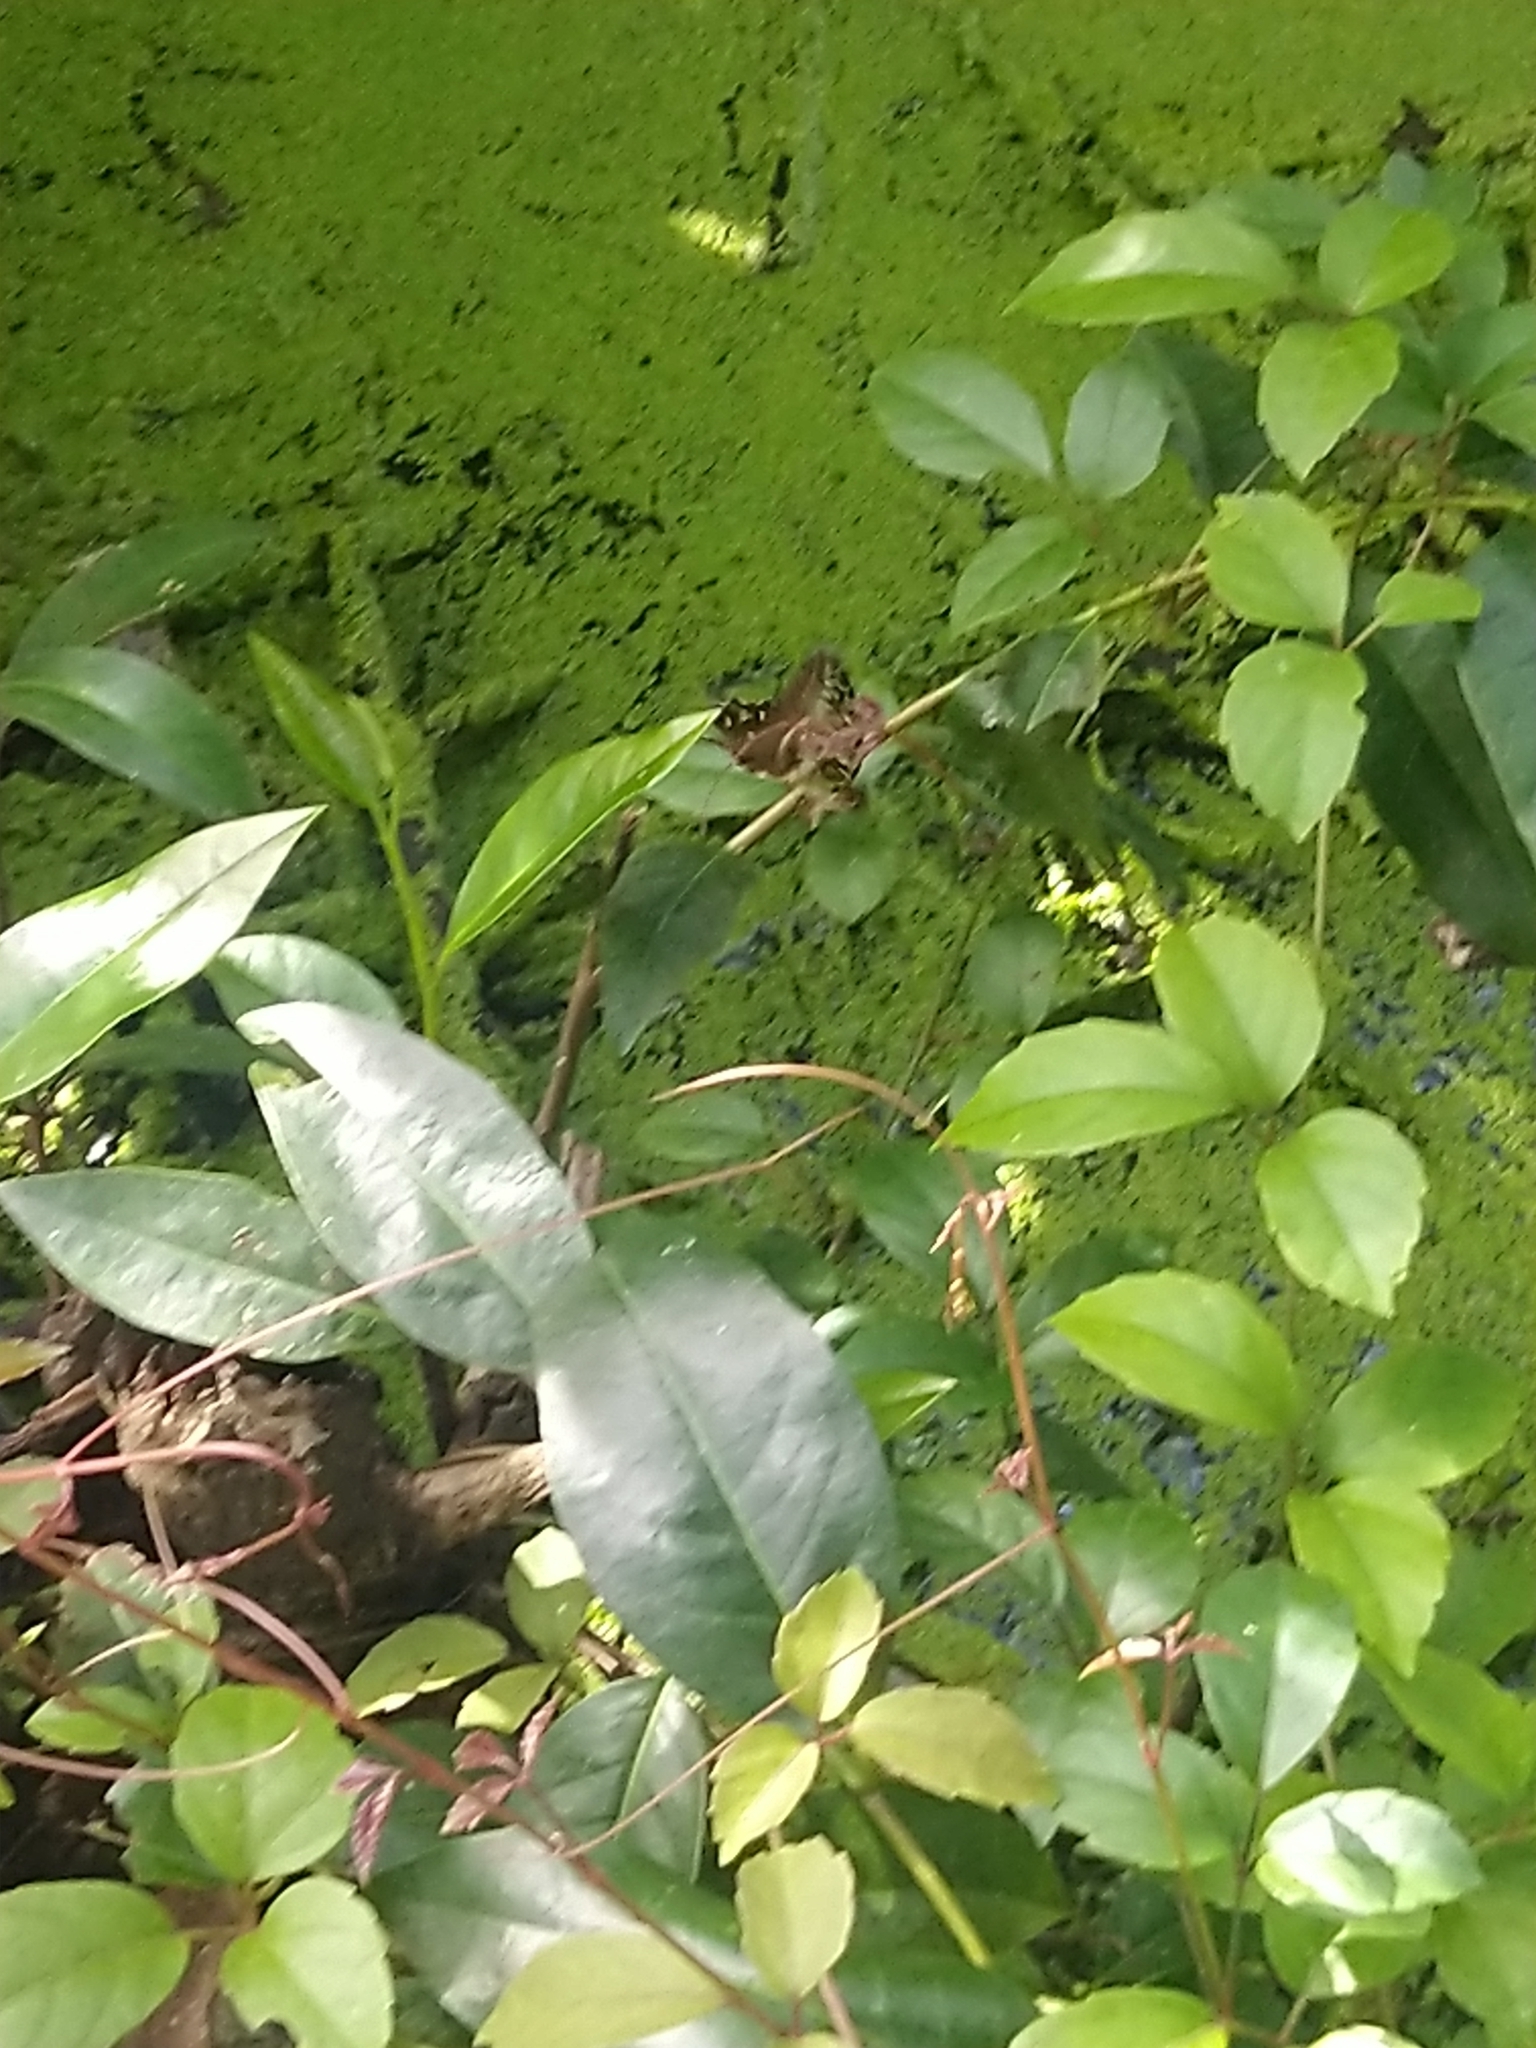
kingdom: Animalia
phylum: Arthropoda
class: Insecta
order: Lepidoptera
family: Papilionidae
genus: Graphium
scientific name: Graphium agamemnon
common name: Tailed jay
